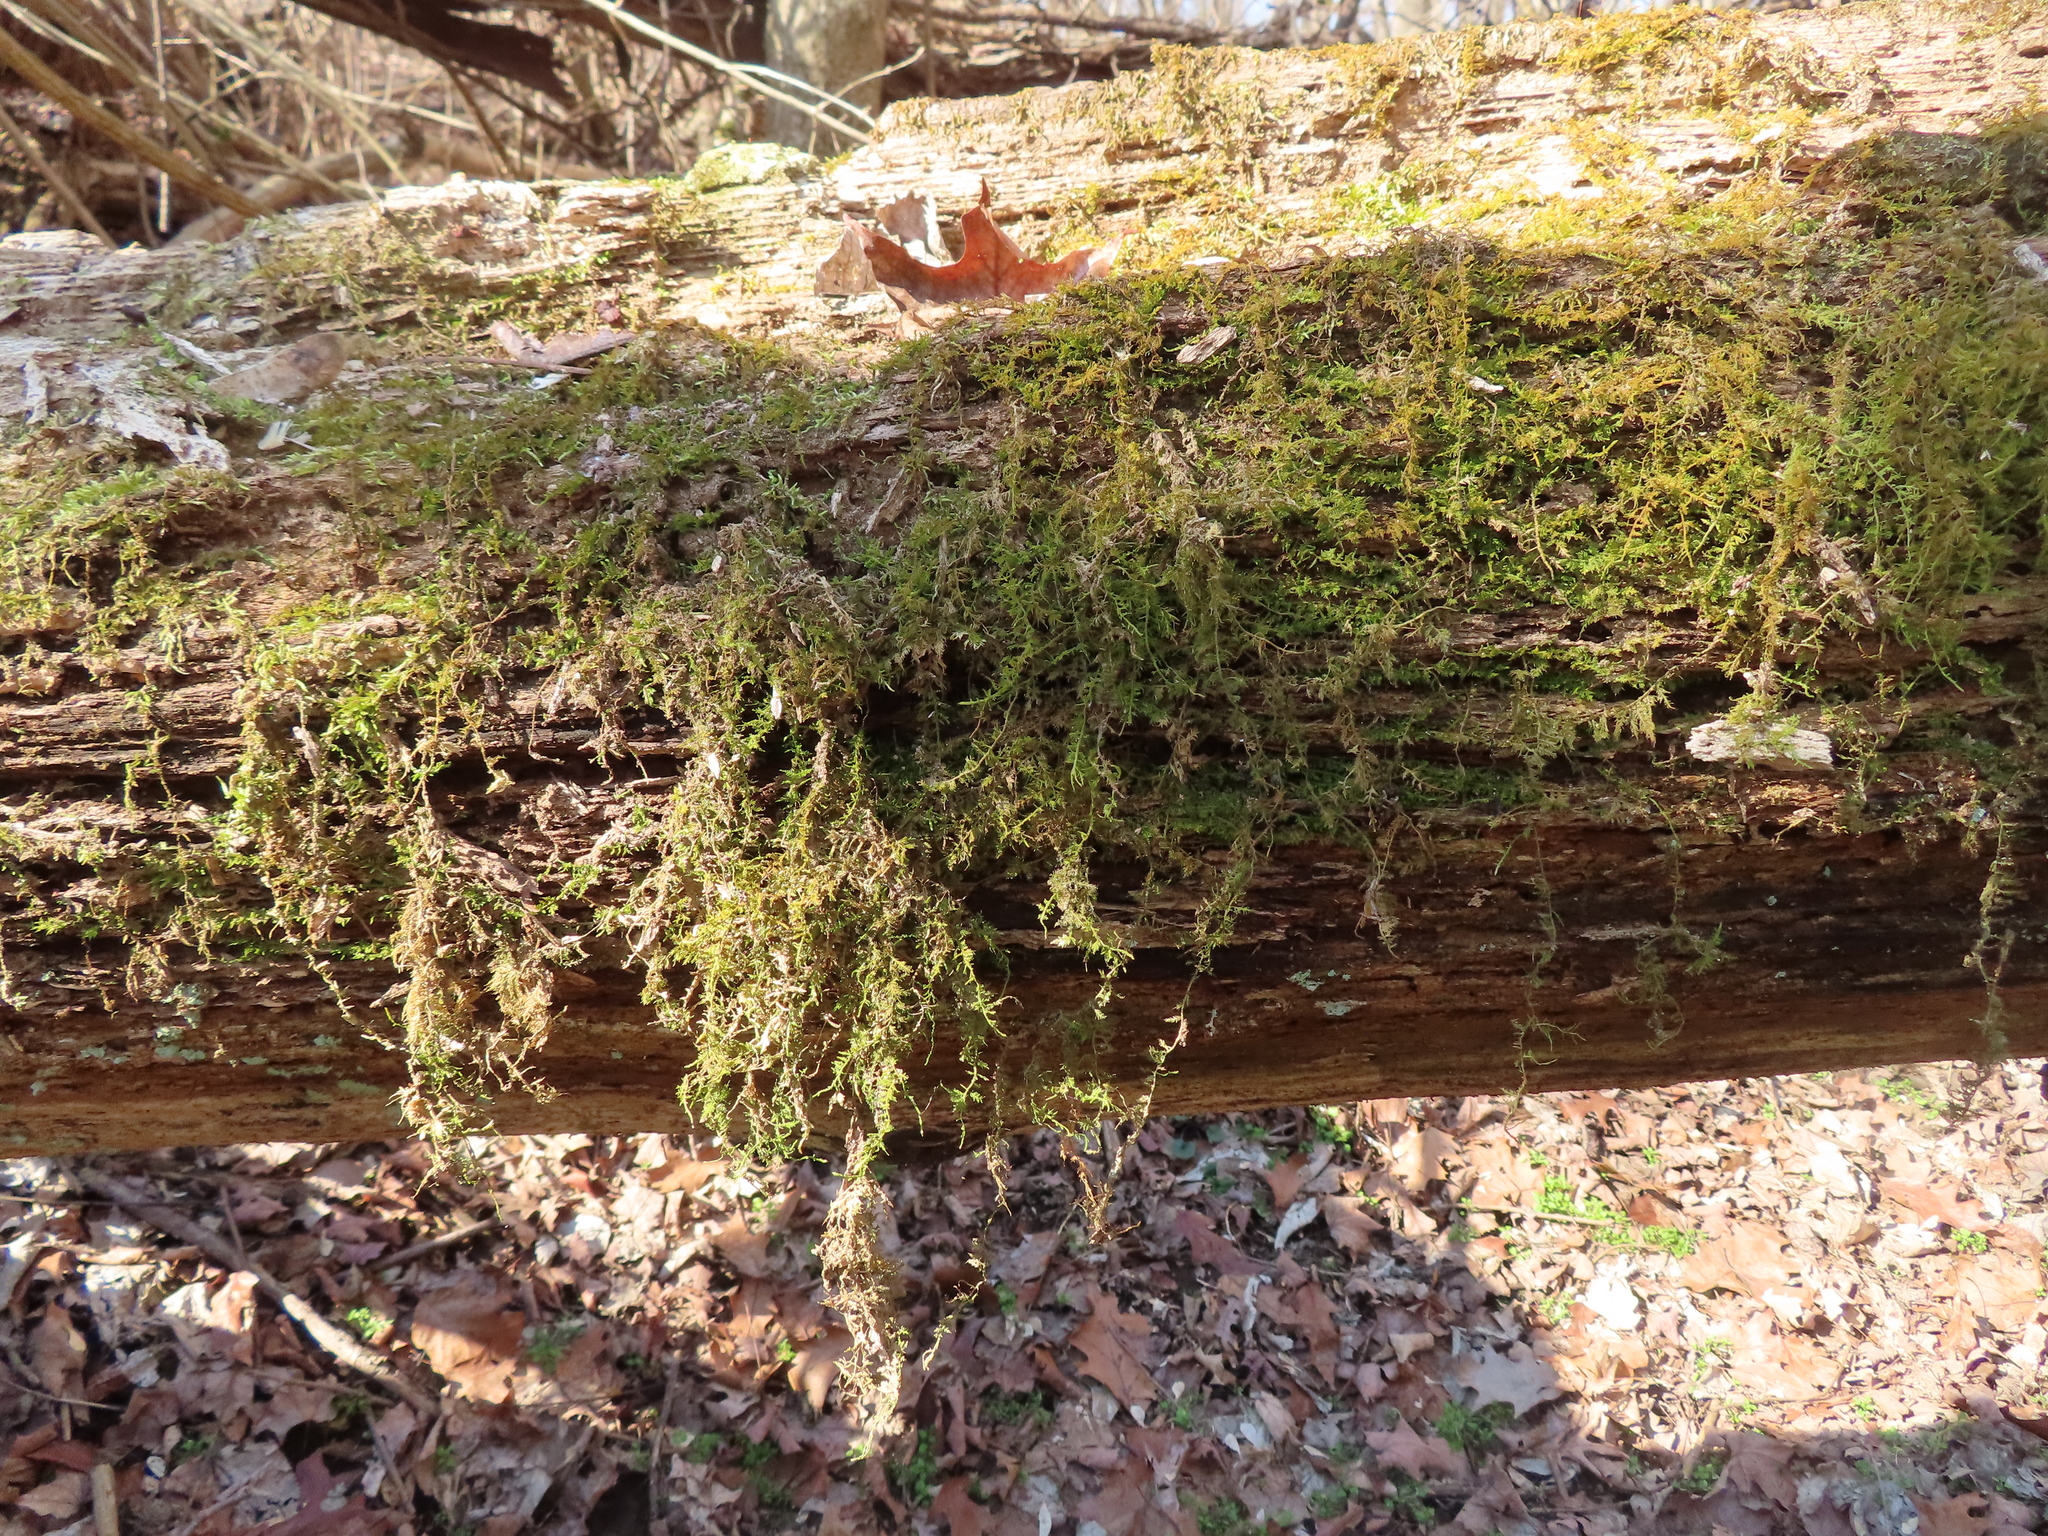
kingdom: Plantae
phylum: Bryophyta
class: Bryopsida
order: Hypnales
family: Thuidiaceae
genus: Thuidium
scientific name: Thuidium delicatulum
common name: Delicate fern moss
